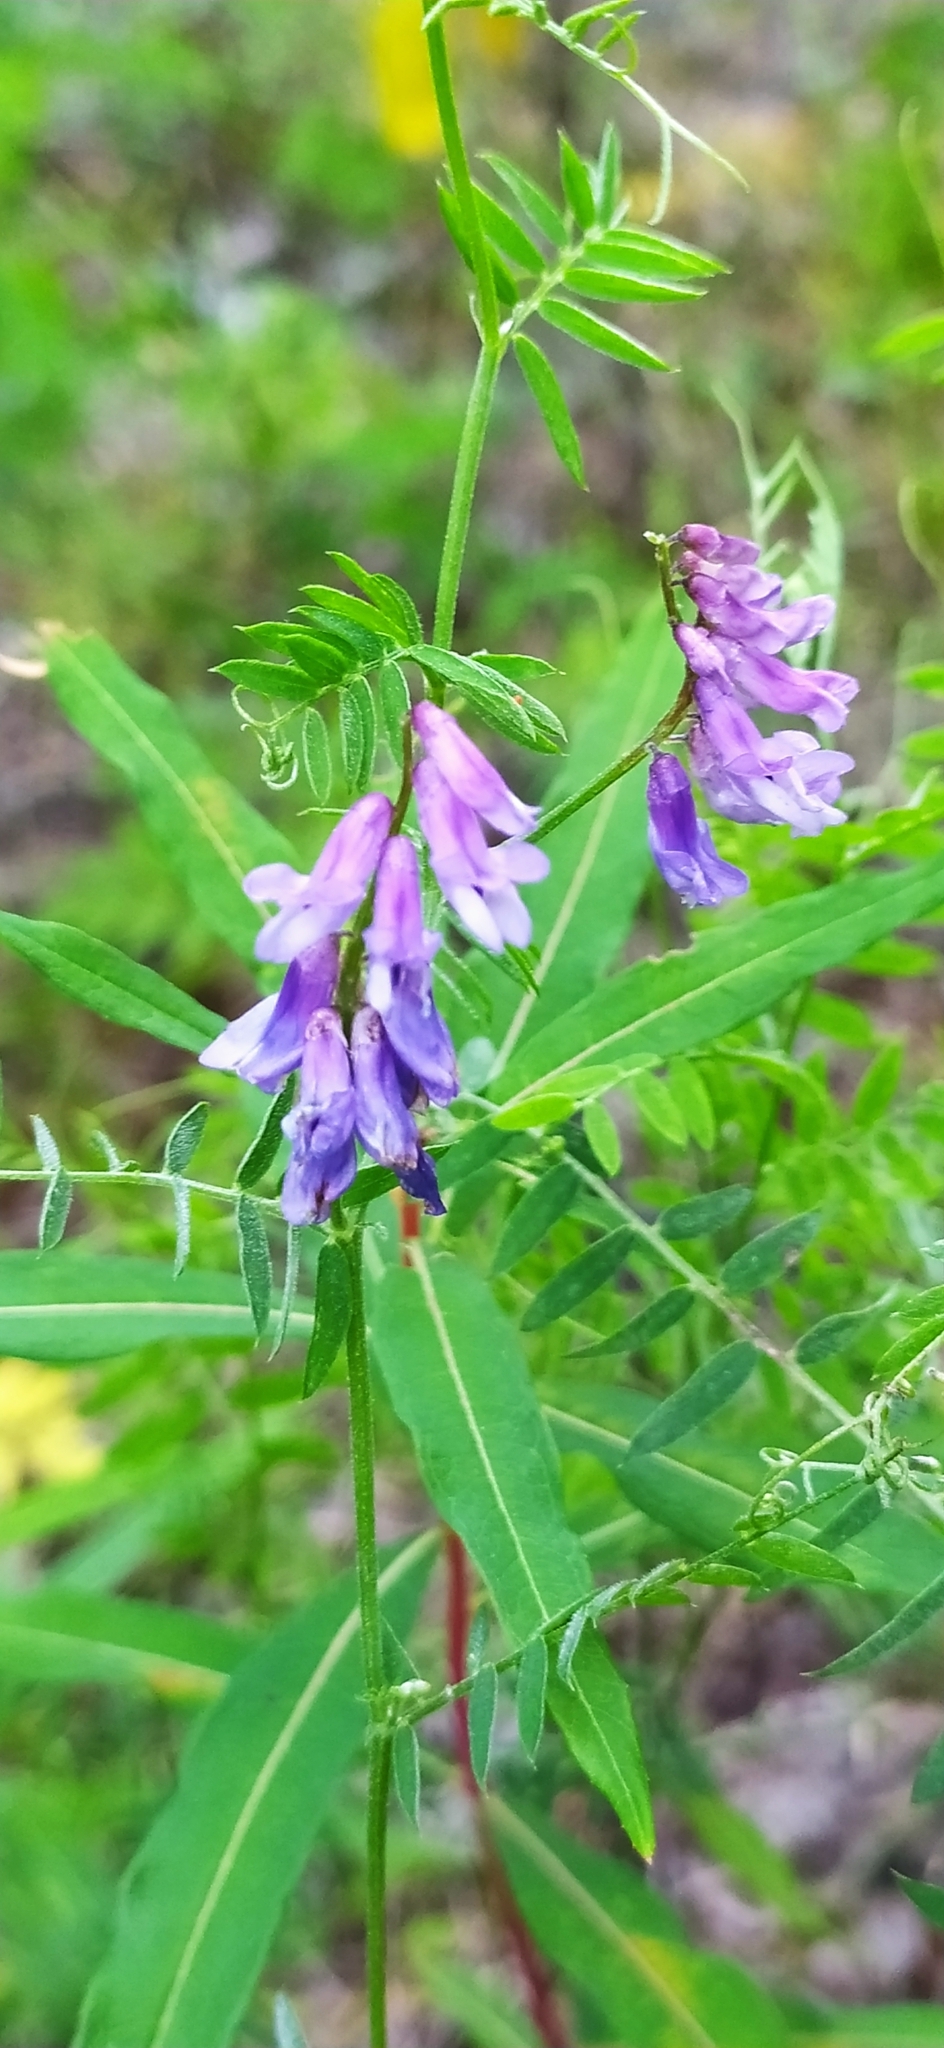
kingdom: Plantae
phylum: Tracheophyta
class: Magnoliopsida
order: Fabales
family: Fabaceae
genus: Vicia
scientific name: Vicia cracca
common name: Bird vetch
